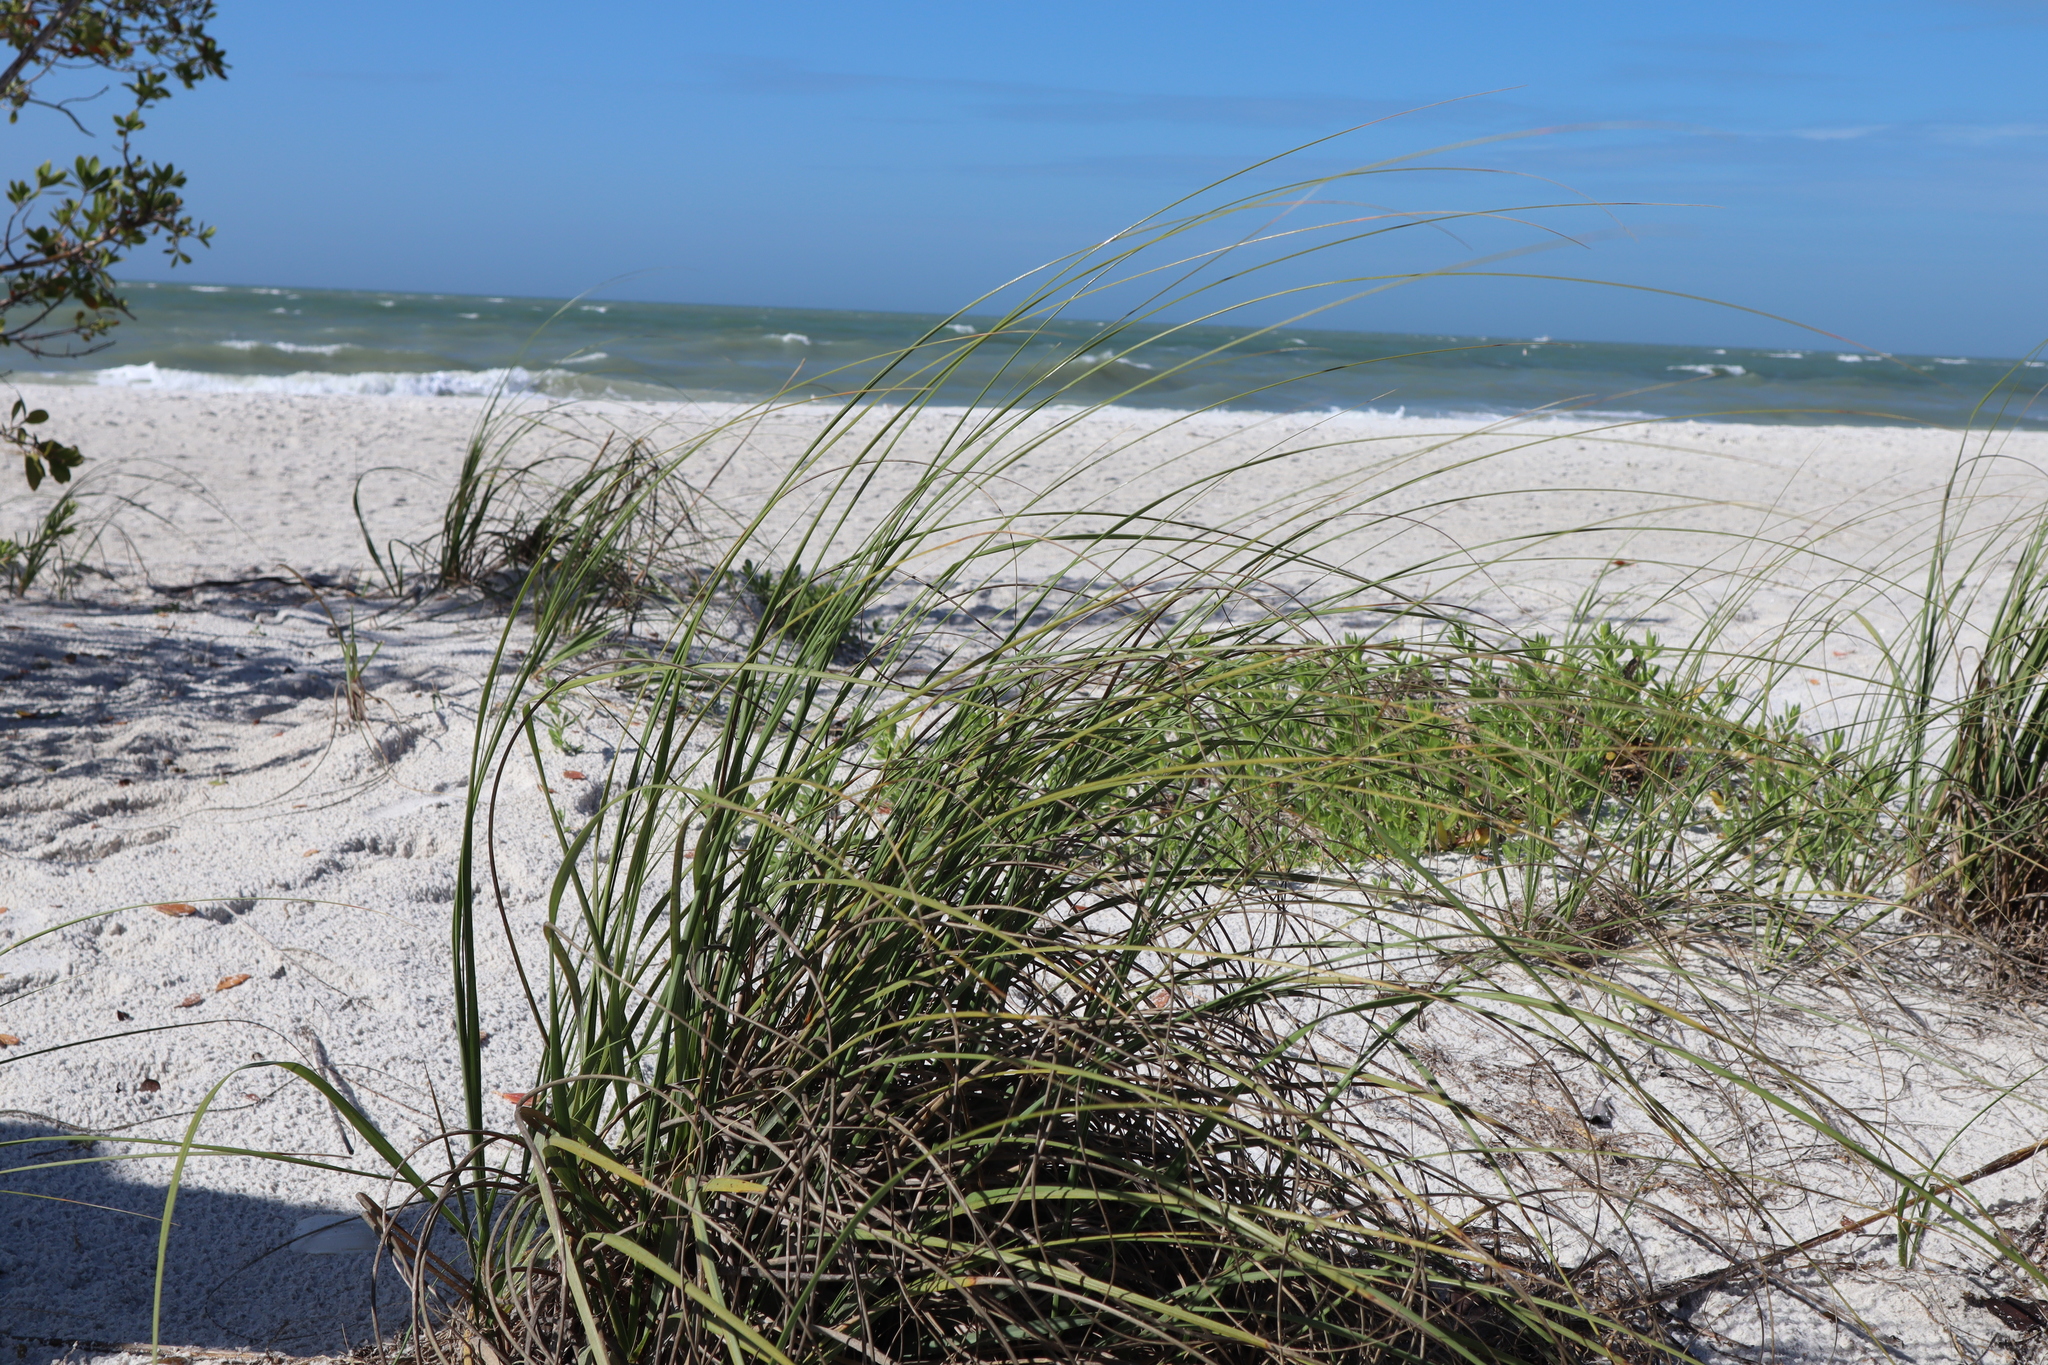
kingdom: Plantae
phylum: Tracheophyta
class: Liliopsida
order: Poales
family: Poaceae
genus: Uniola
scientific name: Uniola paniculata
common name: Seaside-oats
